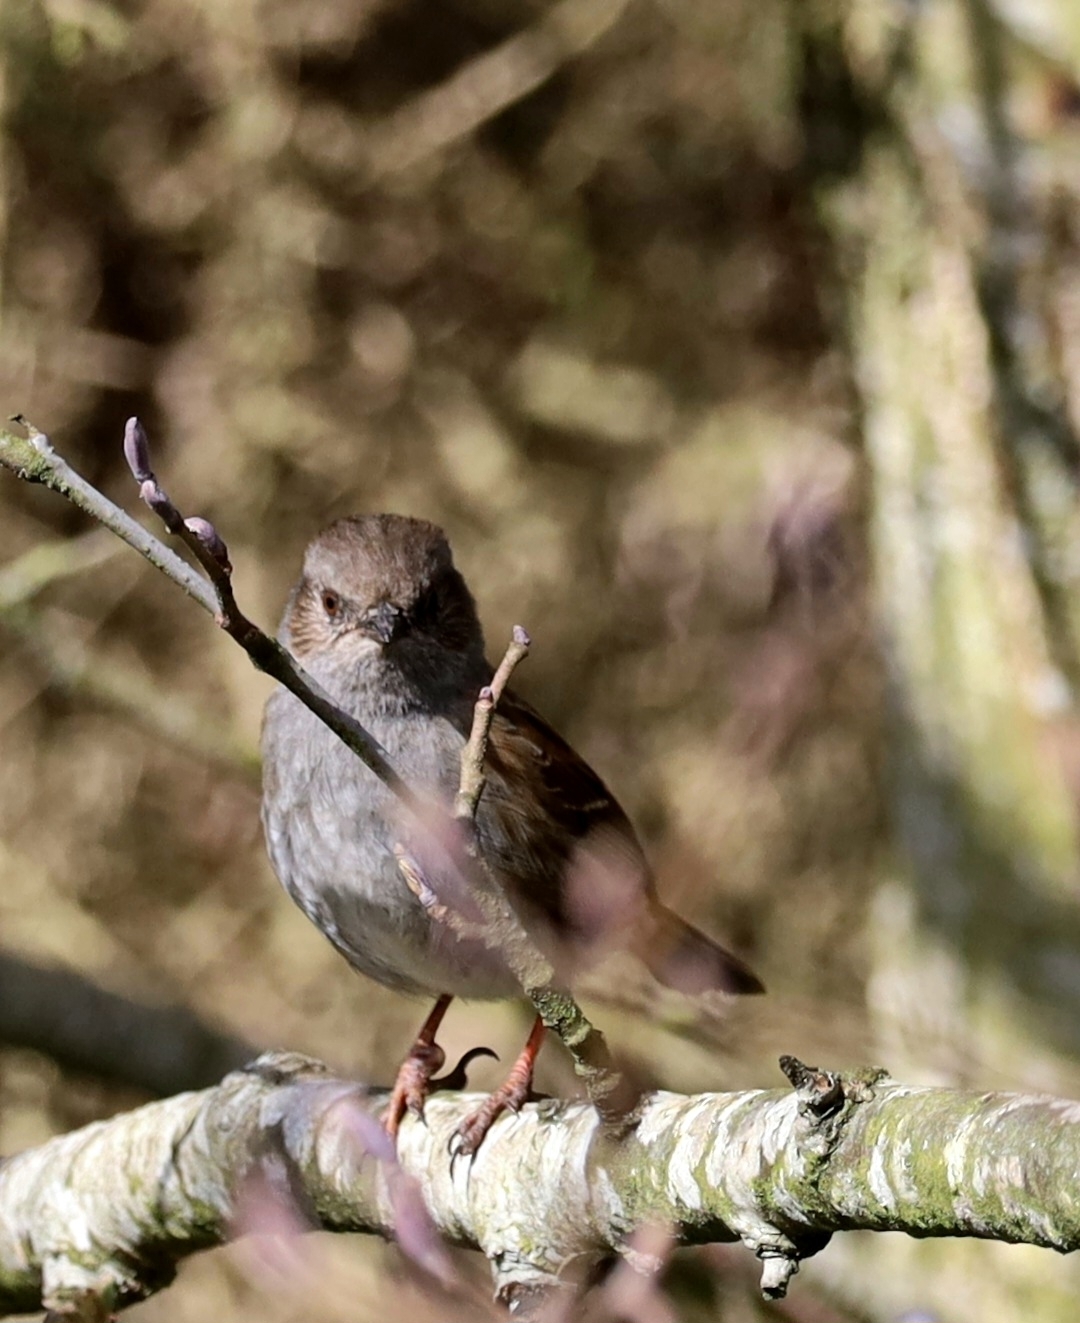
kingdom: Animalia
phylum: Chordata
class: Aves
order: Passeriformes
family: Prunellidae
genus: Prunella
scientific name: Prunella modularis
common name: Dunnock
